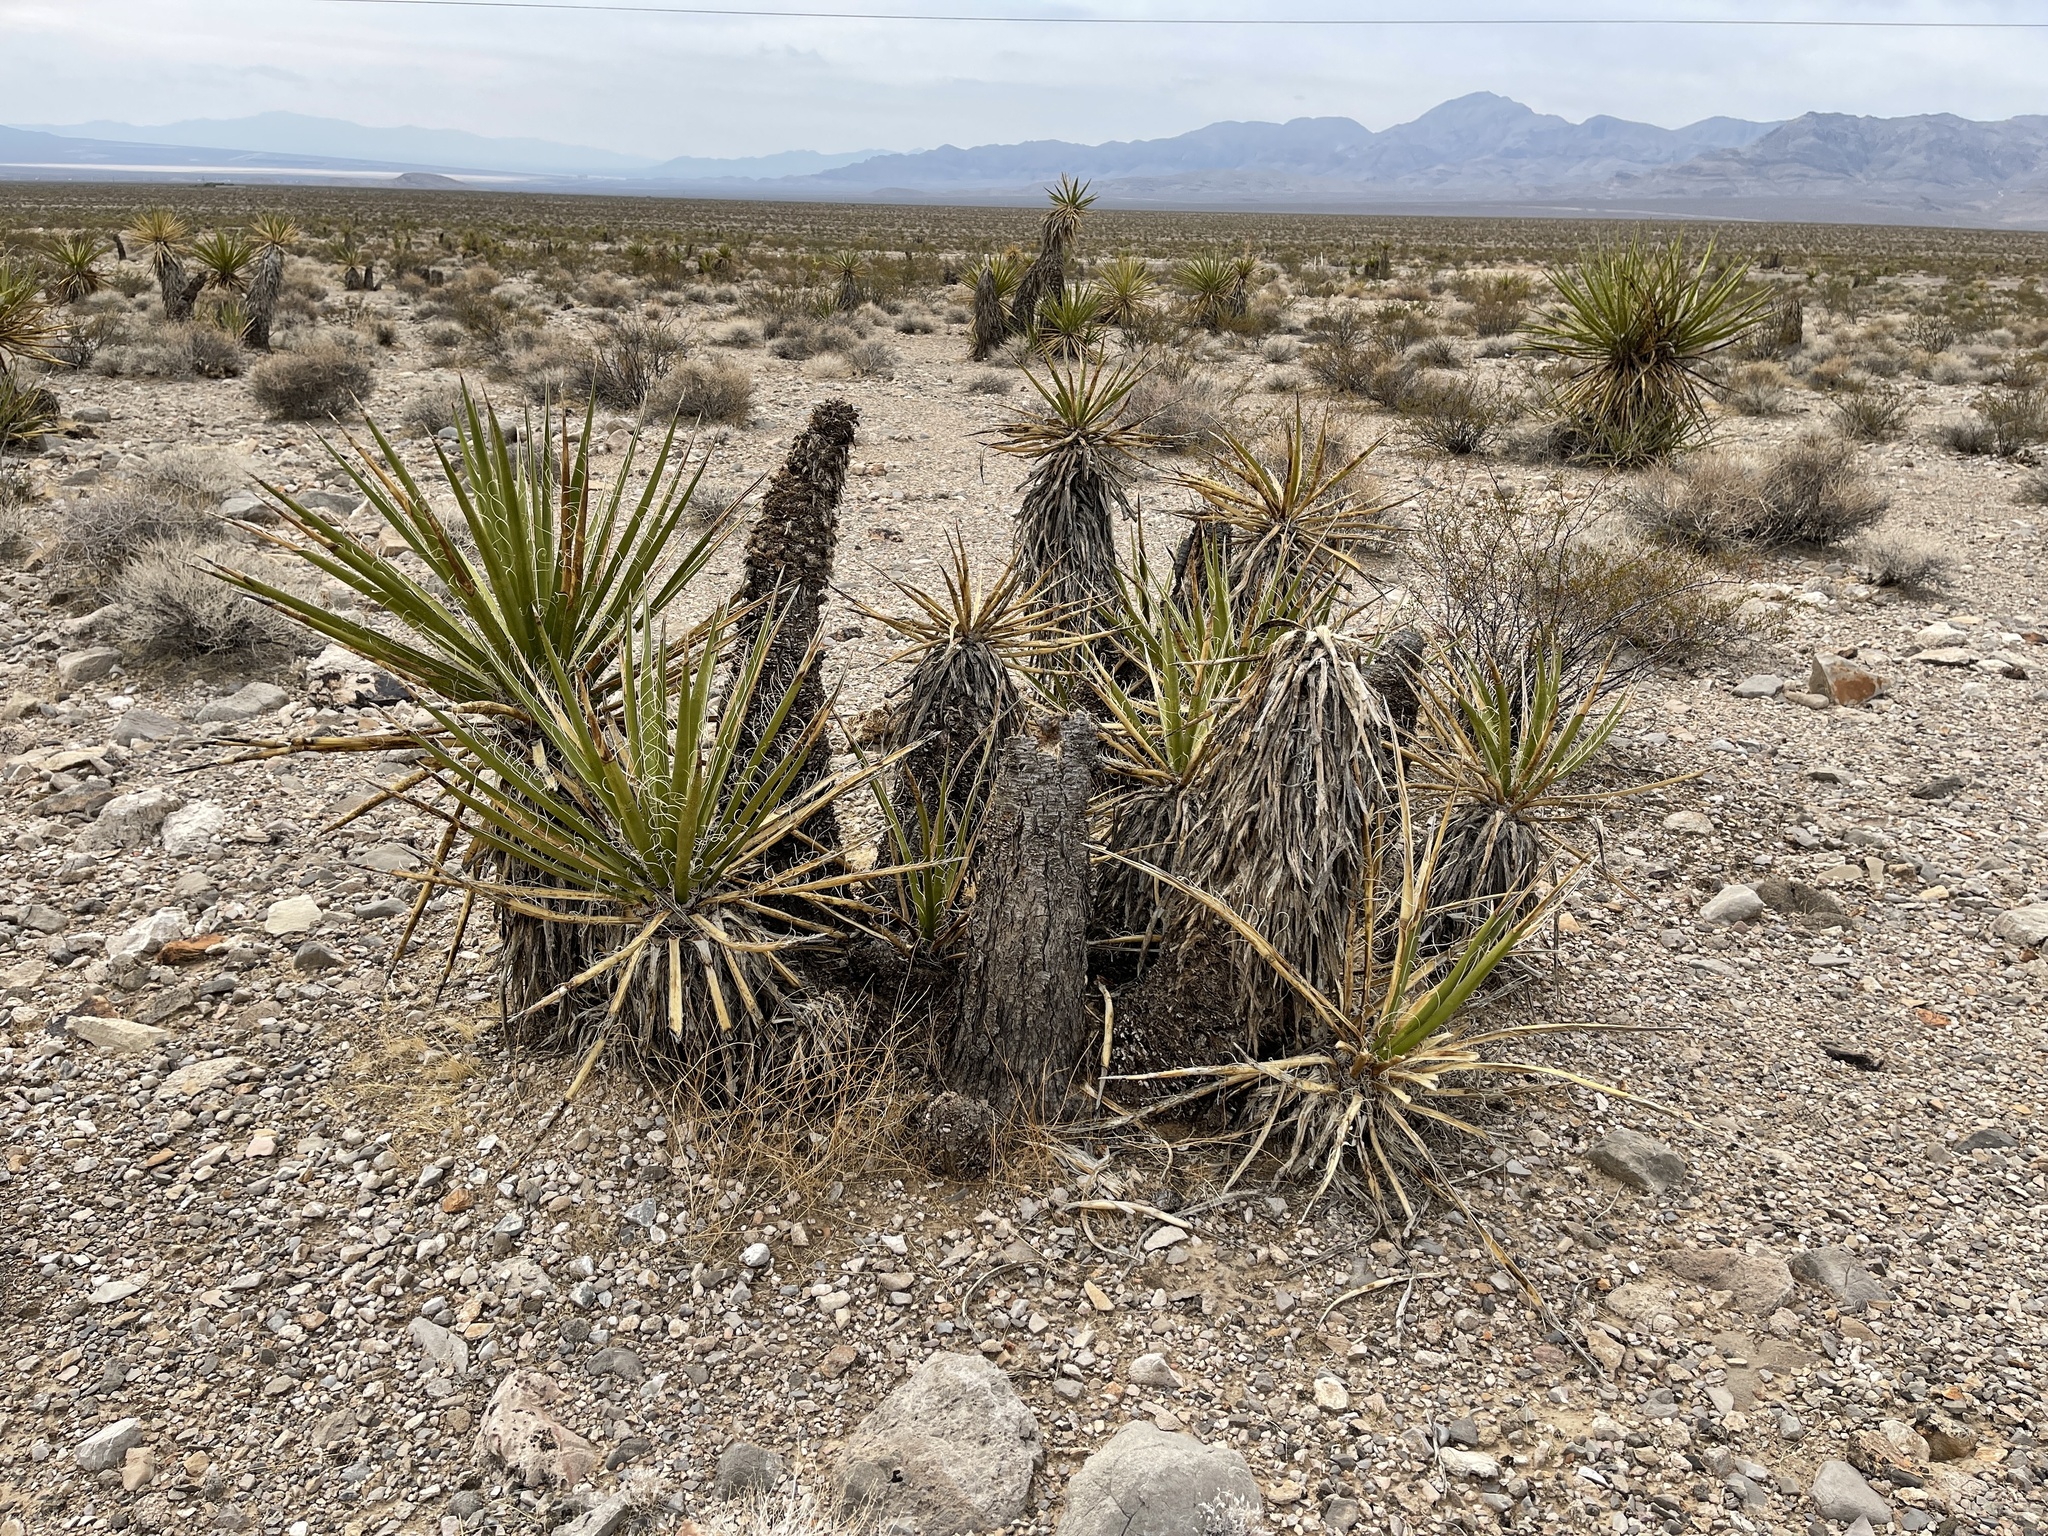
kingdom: Plantae
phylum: Tracheophyta
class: Liliopsida
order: Asparagales
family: Asparagaceae
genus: Yucca
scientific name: Yucca schidigera
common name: Mojave yucca
